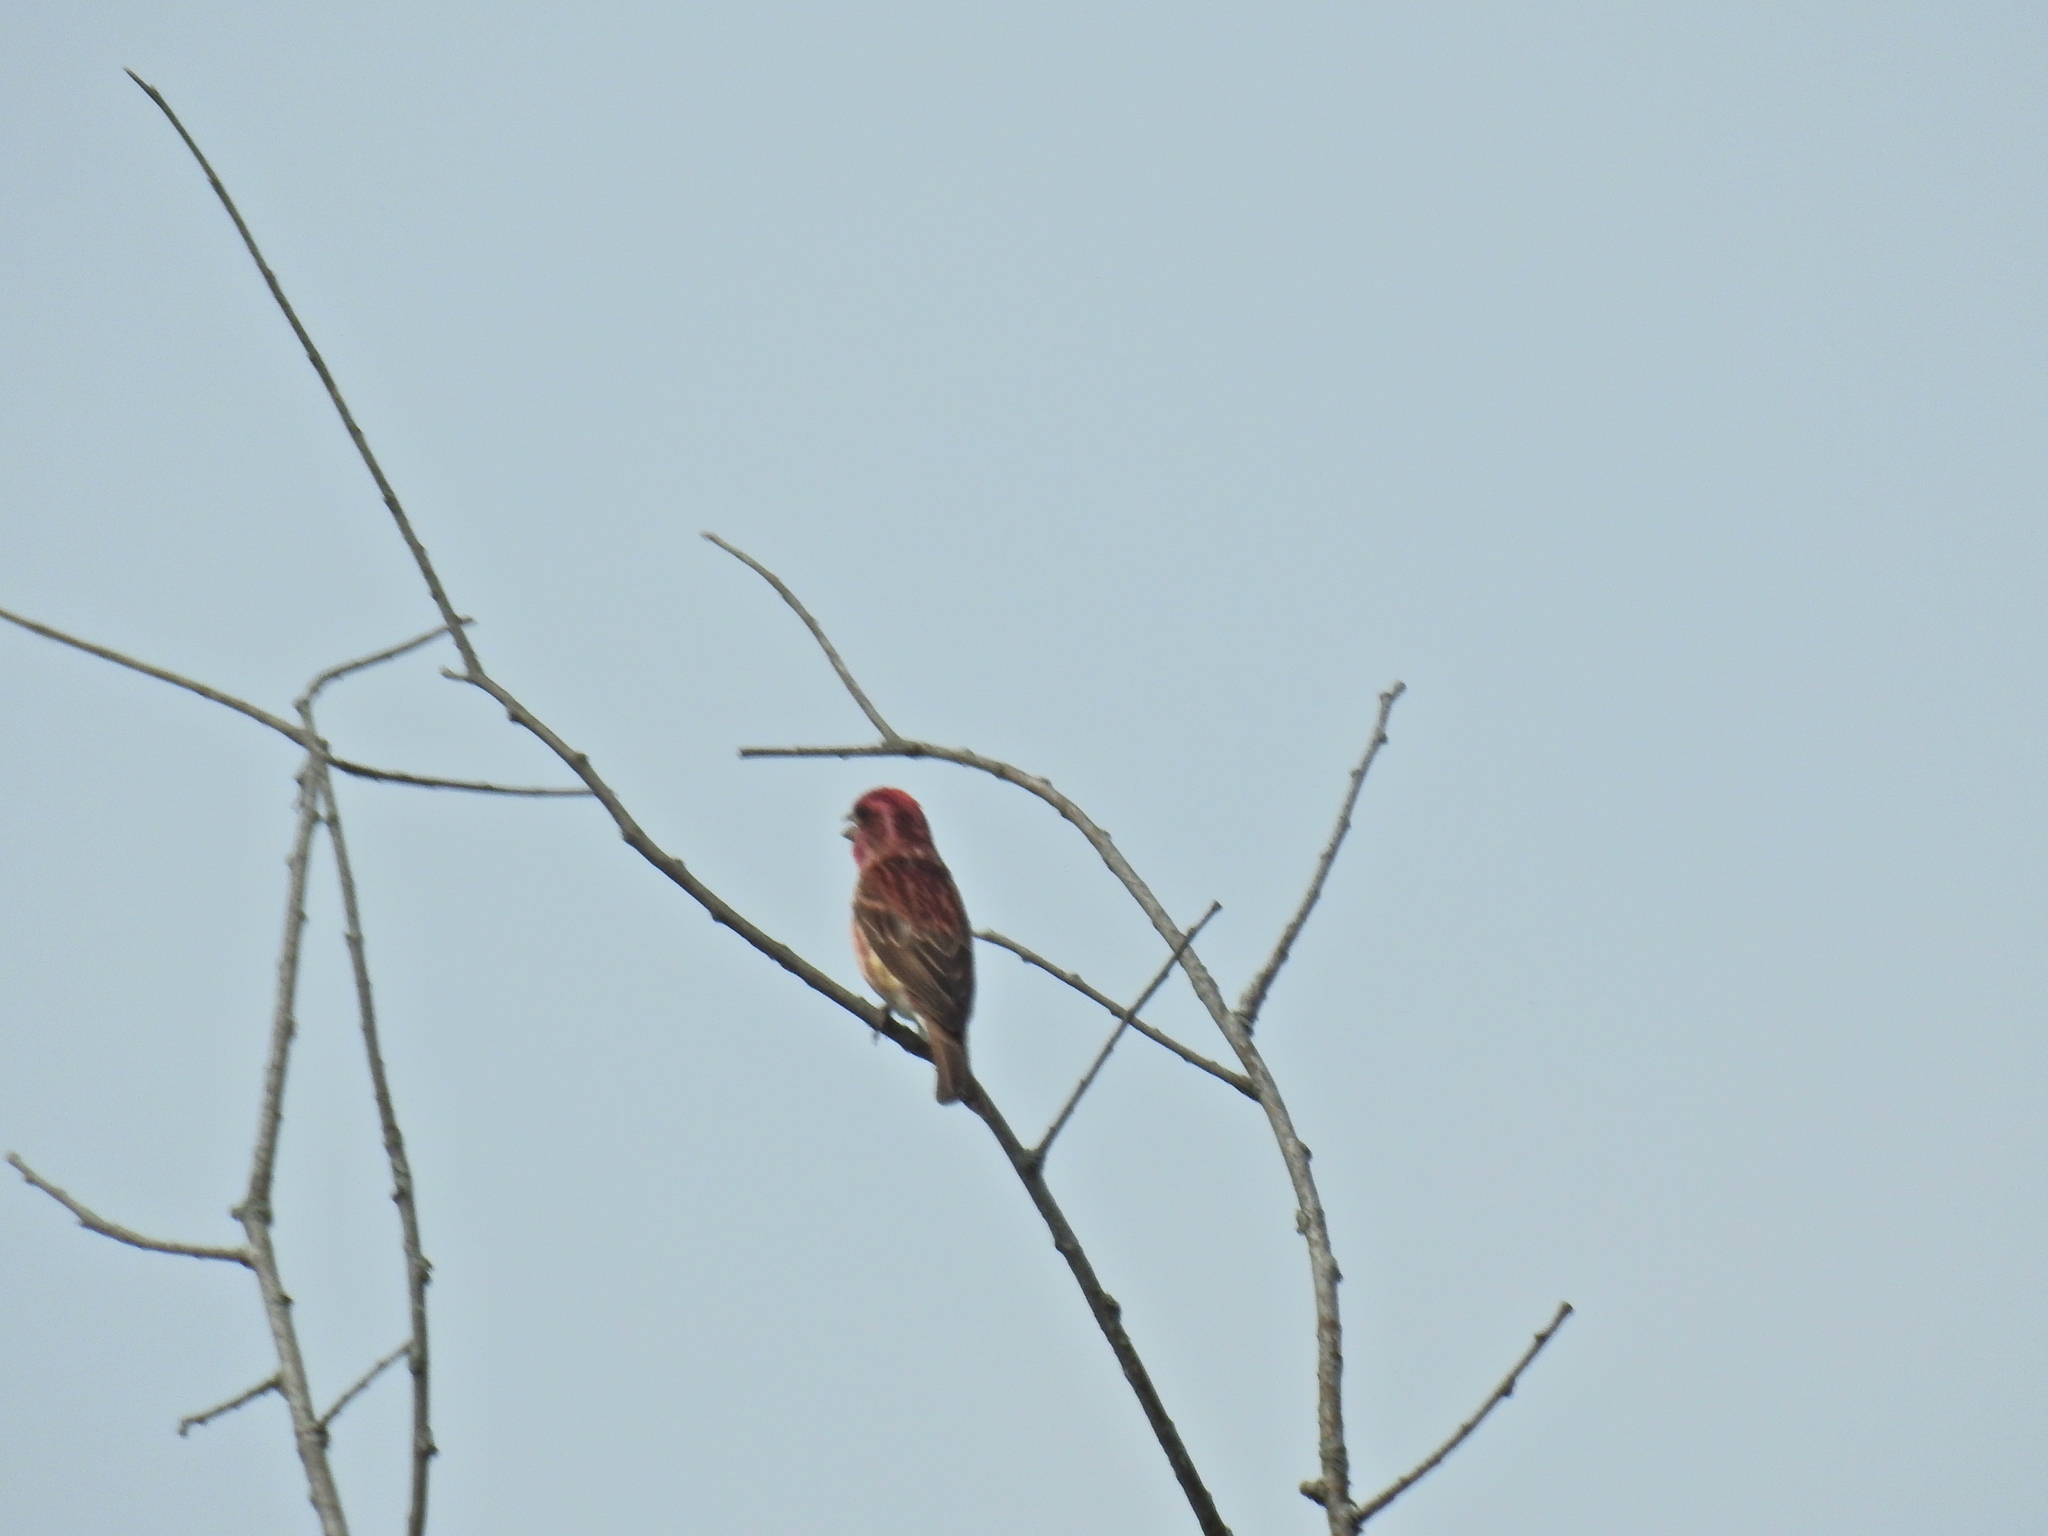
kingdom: Animalia
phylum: Chordata
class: Aves
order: Passeriformes
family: Fringillidae
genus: Haemorhous
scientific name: Haemorhous purpureus
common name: Purple finch
